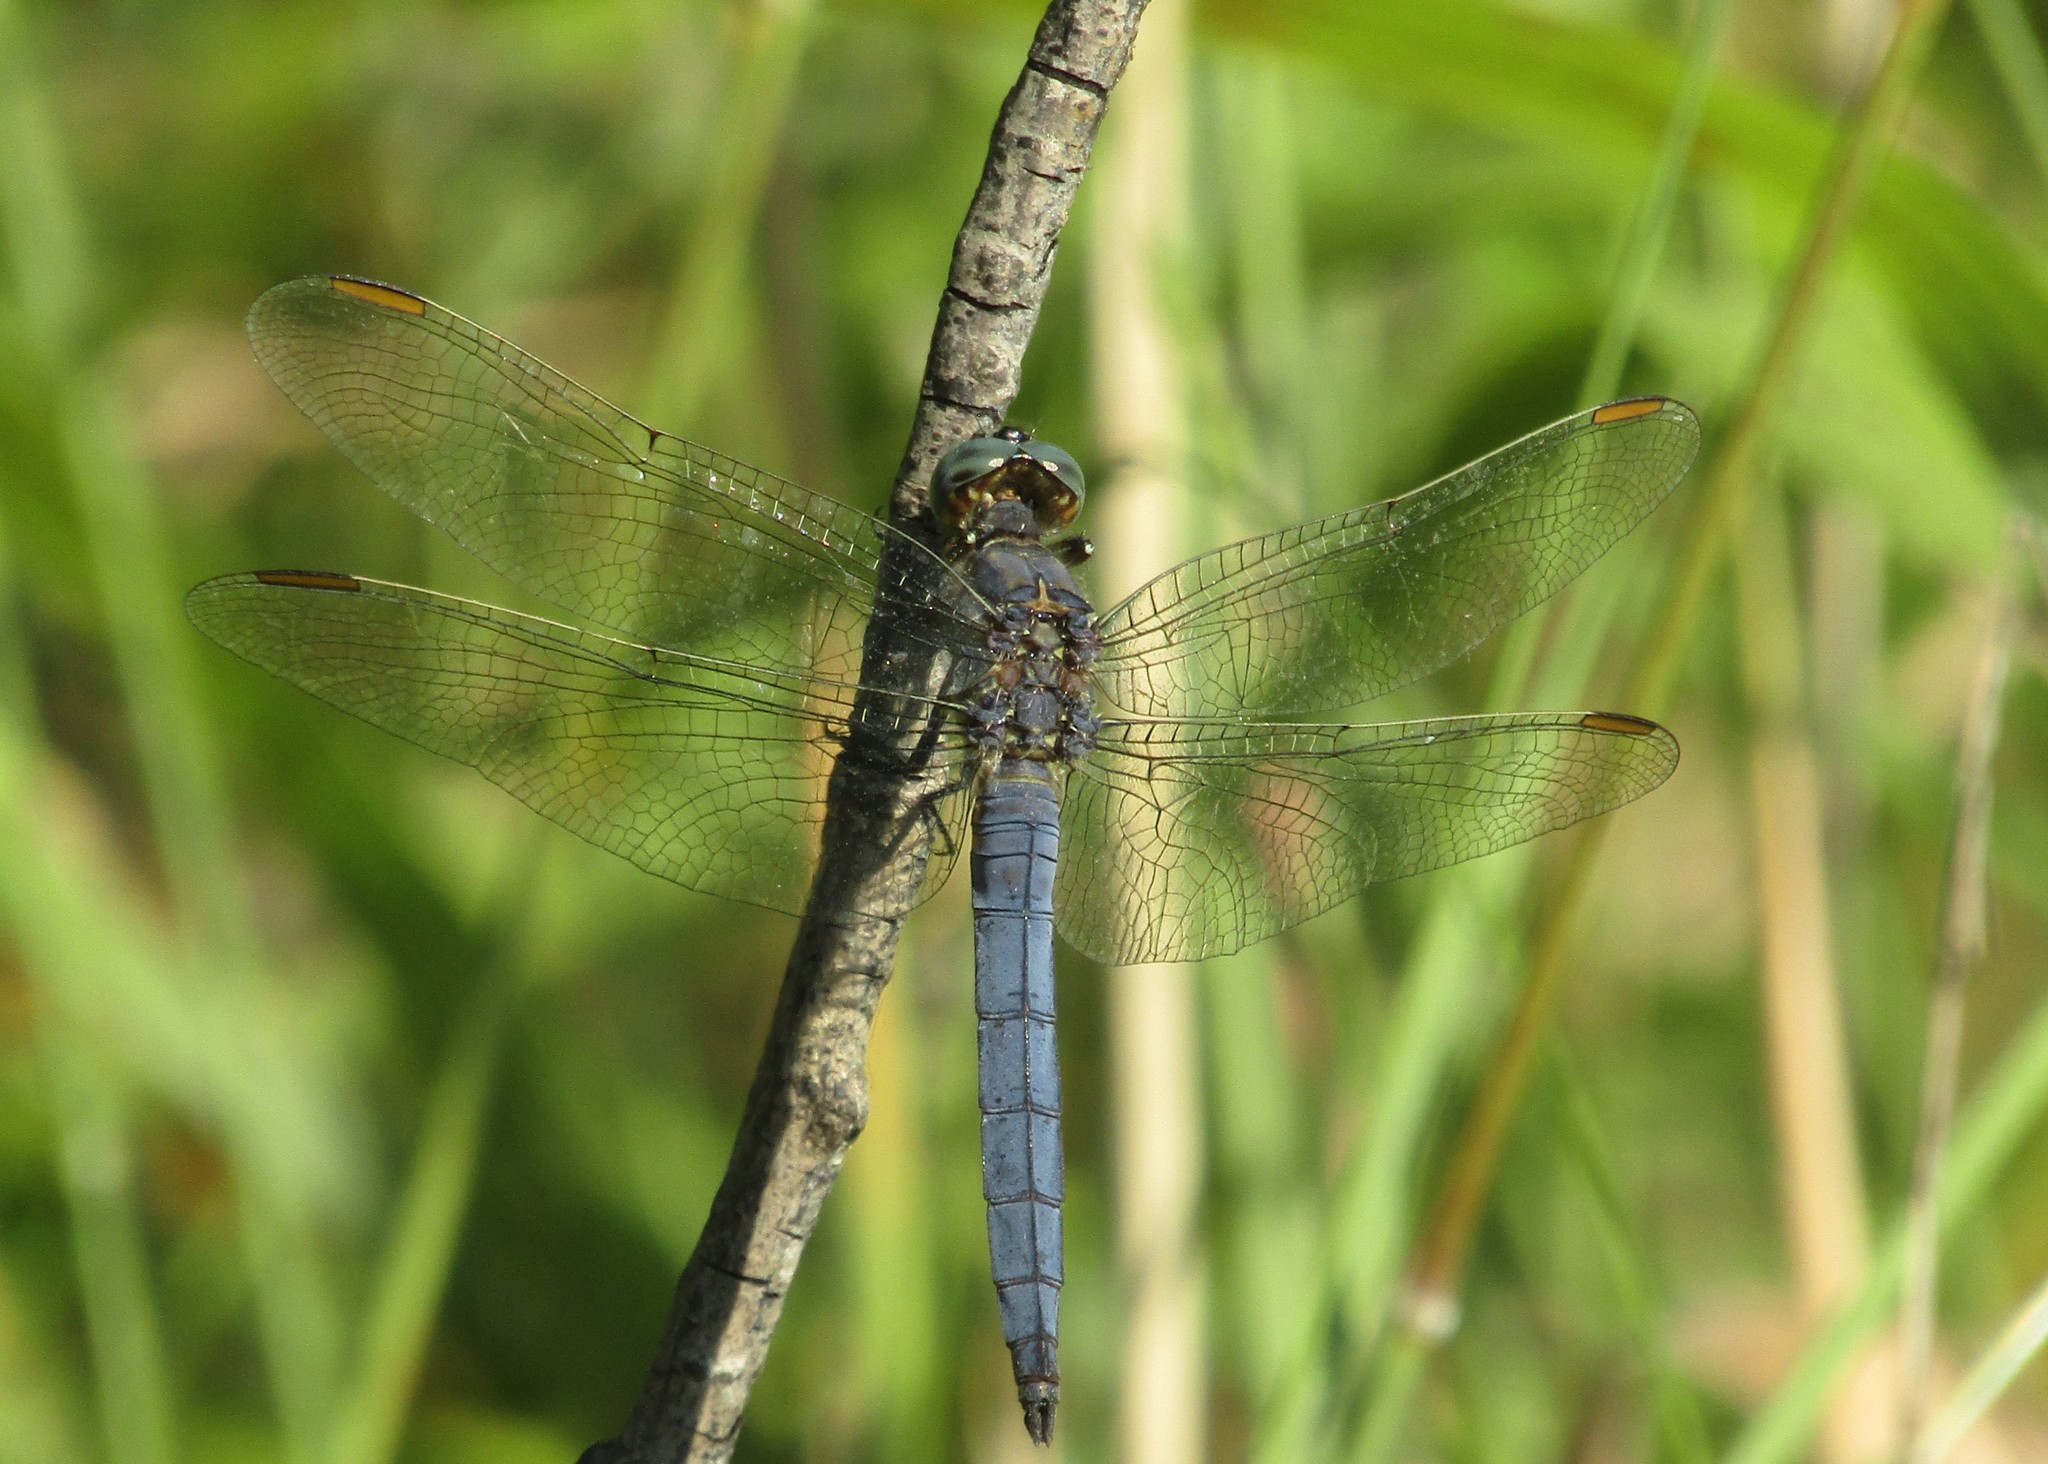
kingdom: Animalia
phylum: Arthropoda
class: Insecta
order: Odonata
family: Libellulidae
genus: Orthetrum
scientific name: Orthetrum coerulescens
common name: Keeled skimmer
